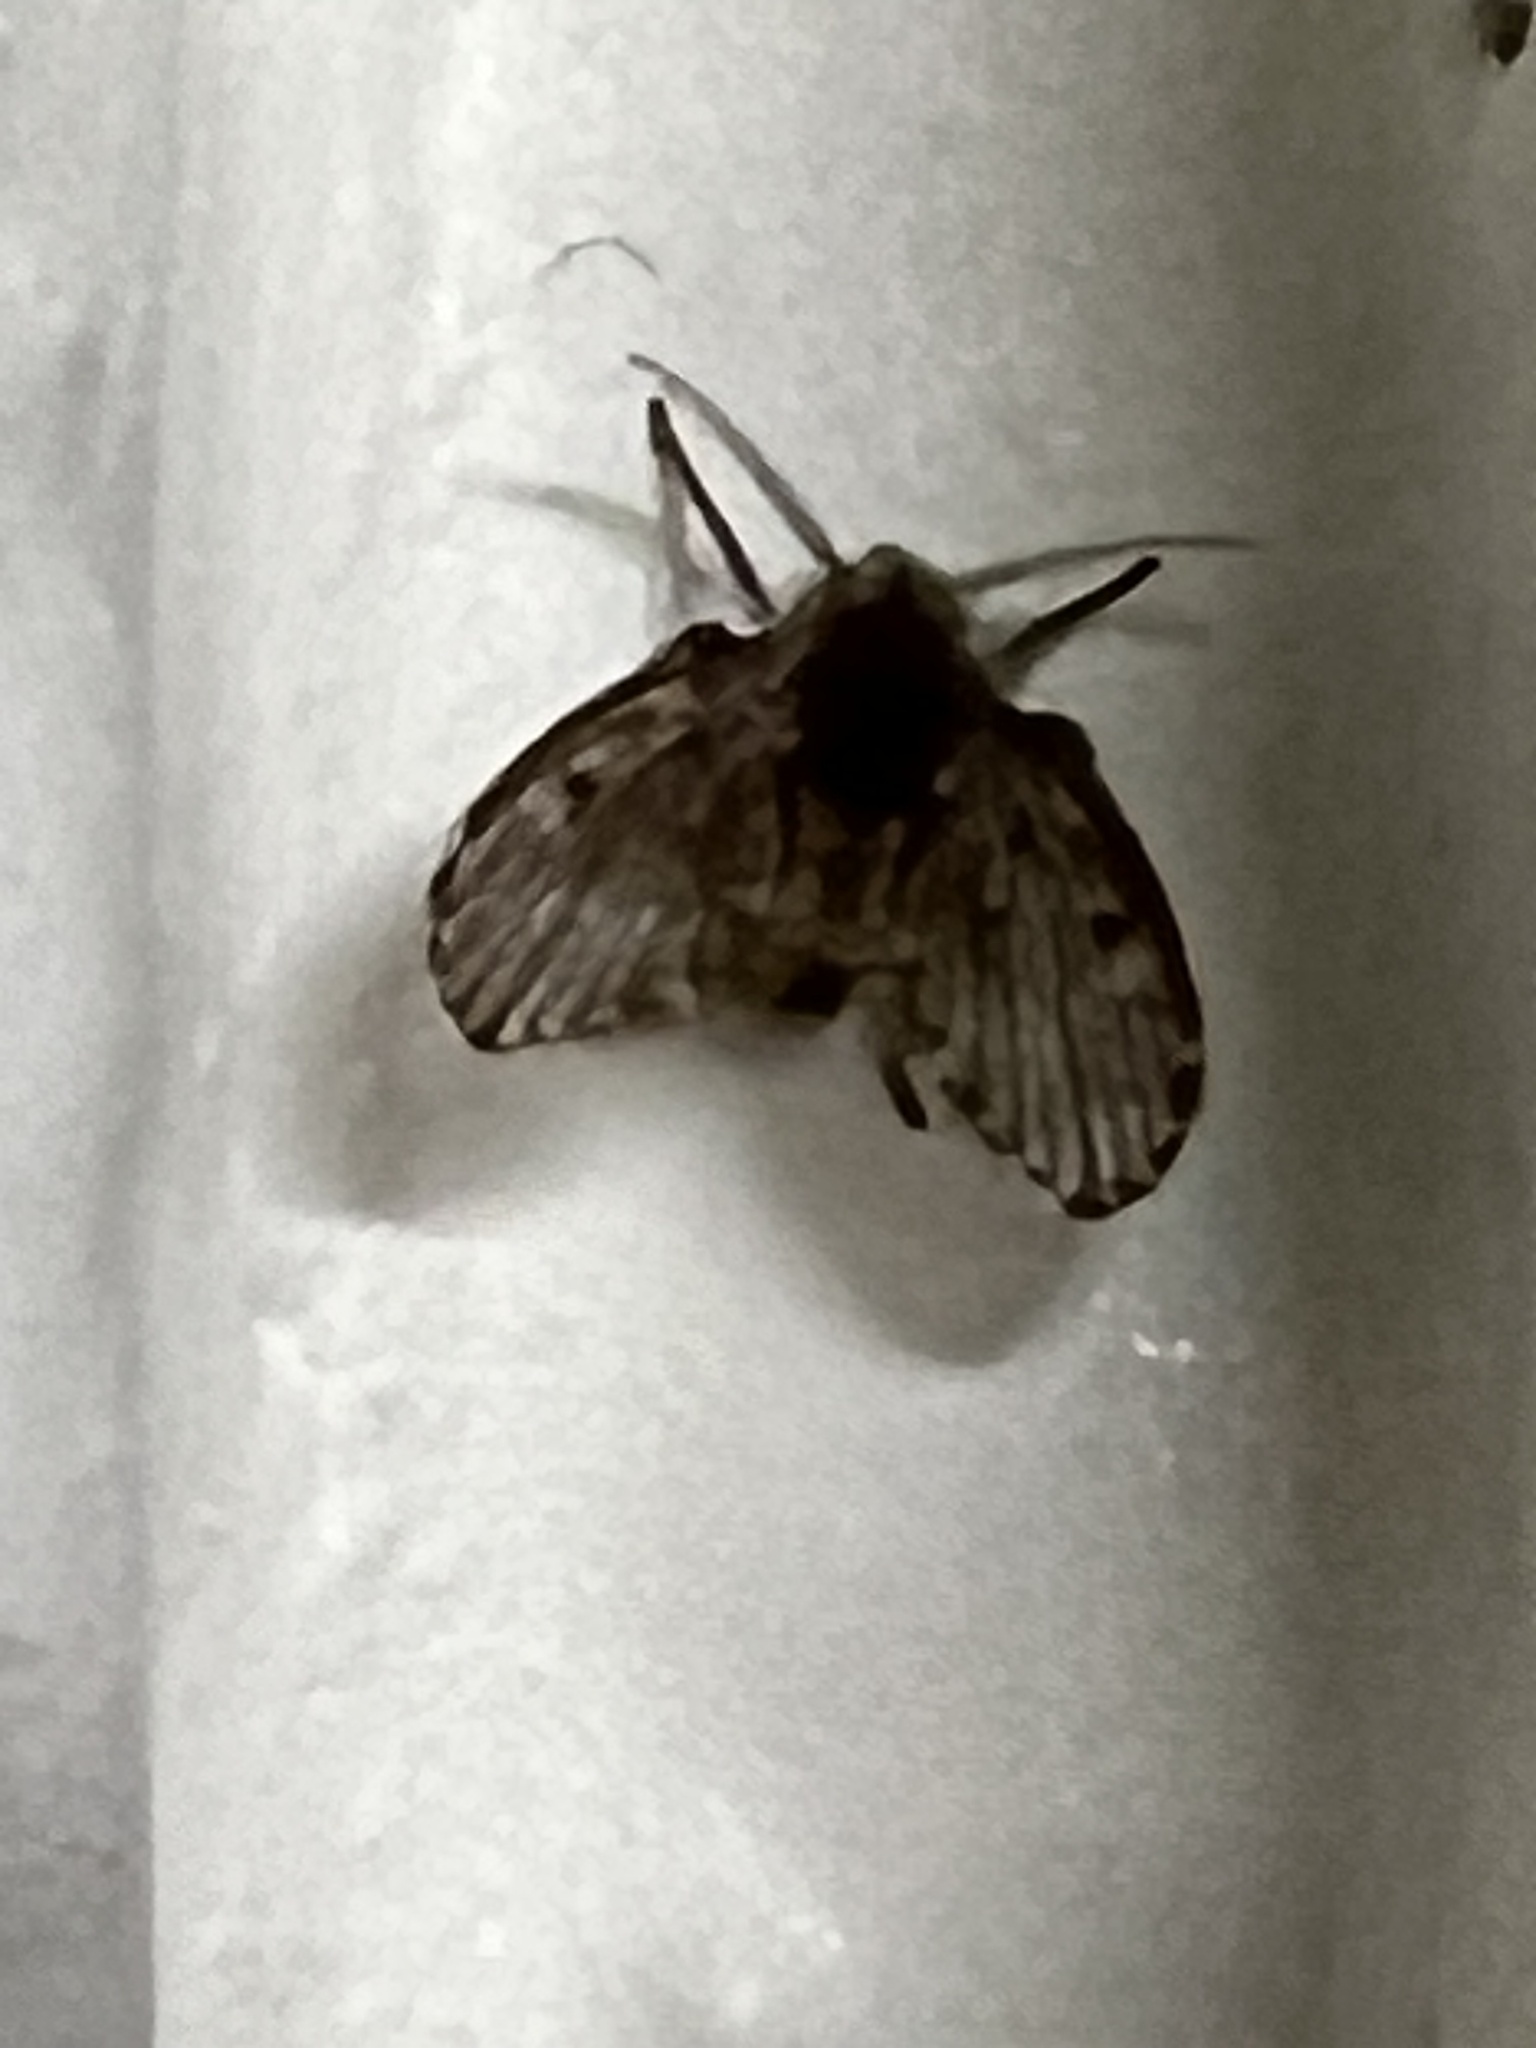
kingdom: Animalia
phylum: Arthropoda
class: Insecta
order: Diptera
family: Psychodidae
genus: Clogmia
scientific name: Clogmia albipunctatus
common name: White-spotted moth fly
